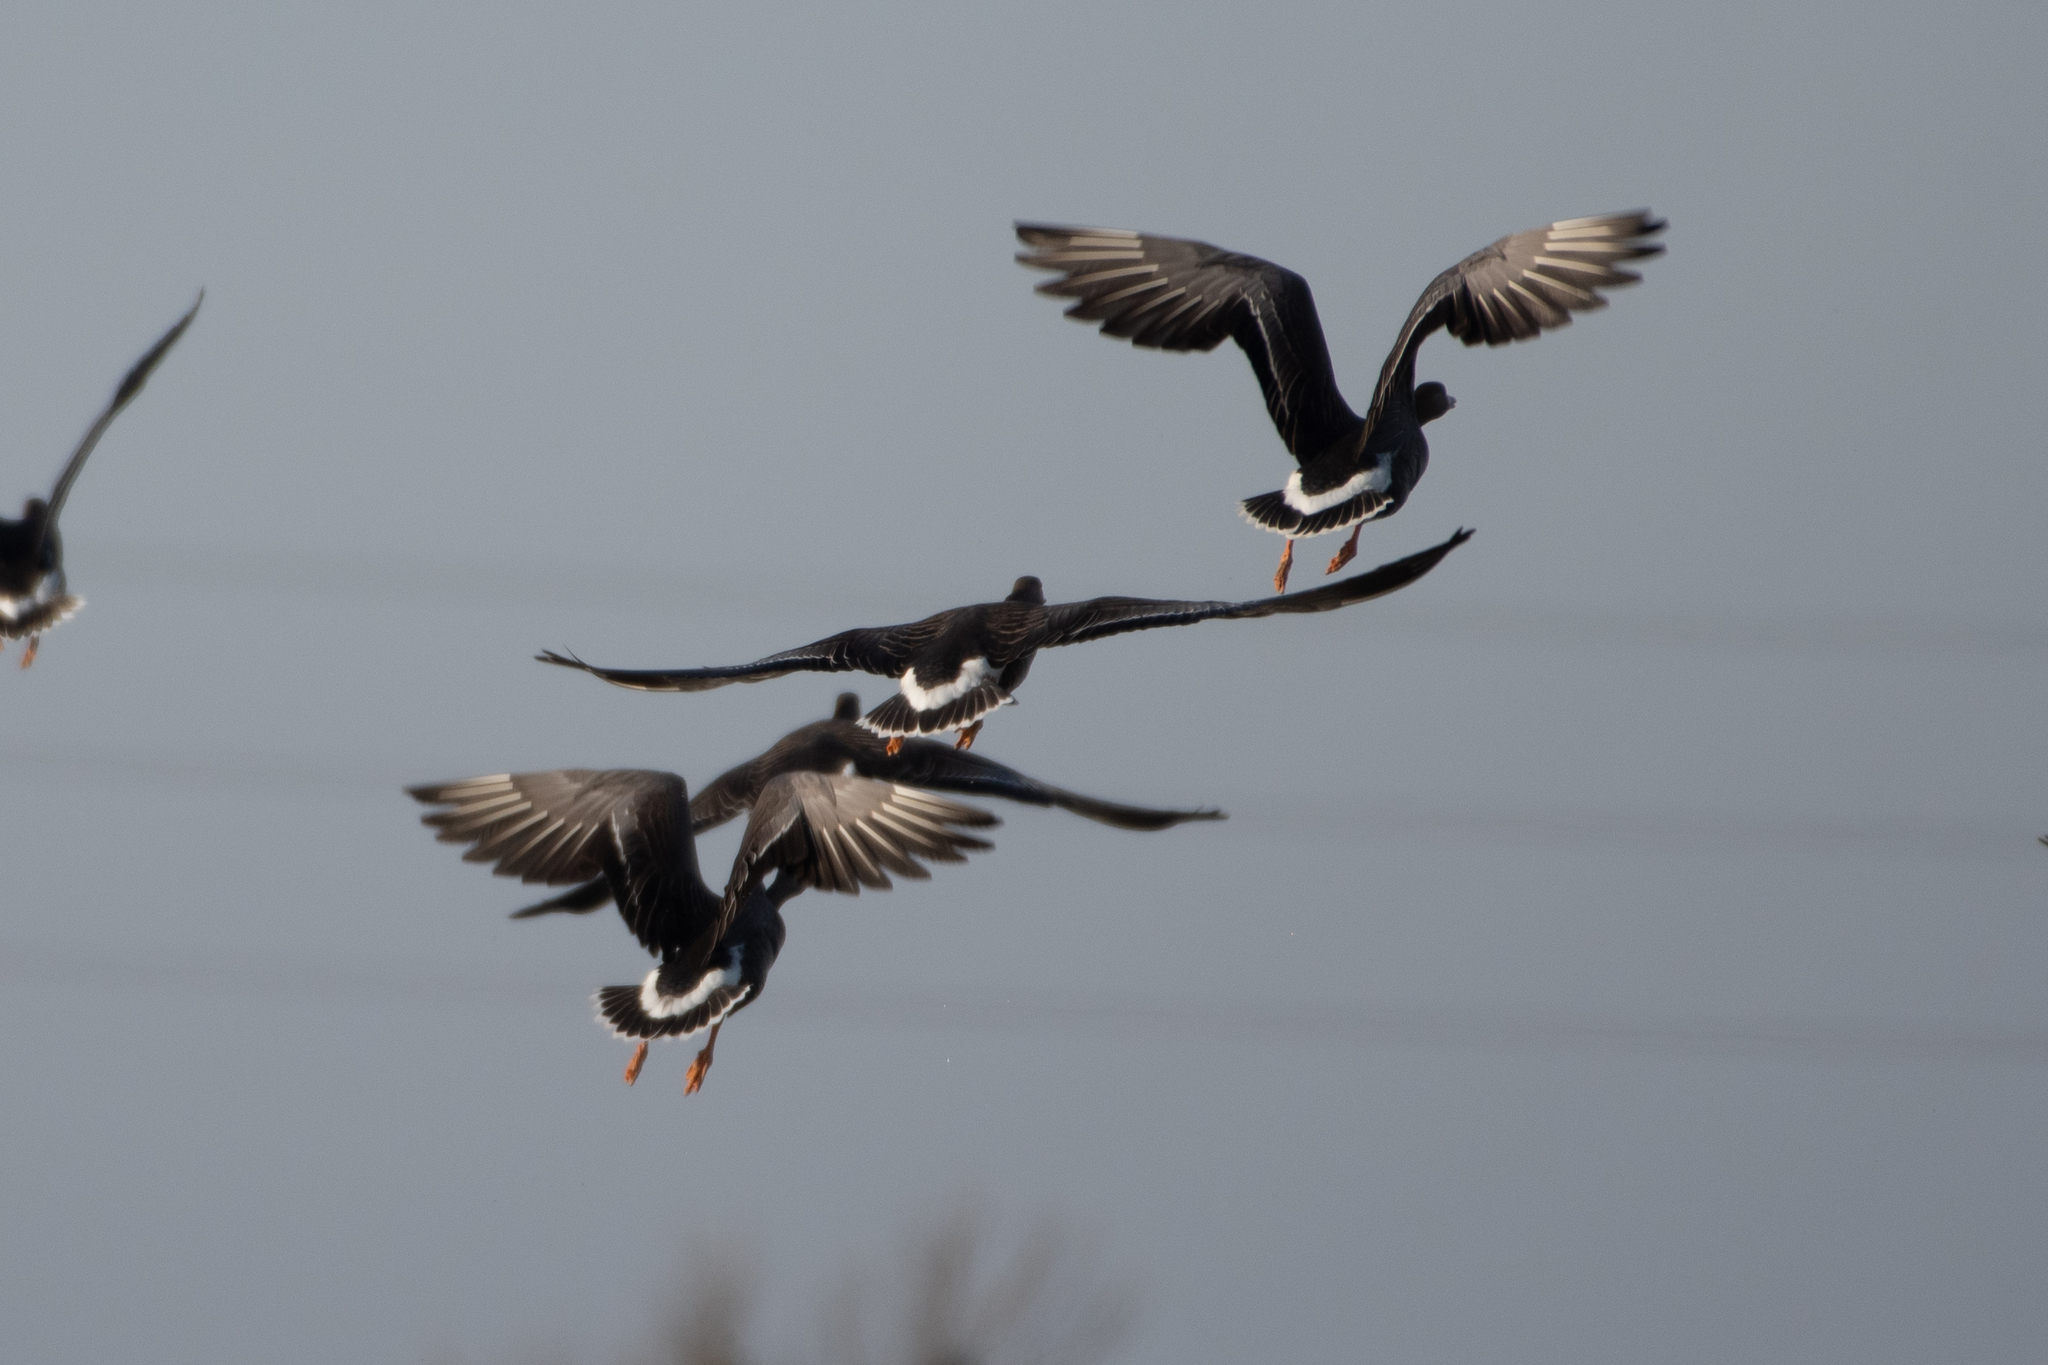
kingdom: Animalia
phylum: Chordata
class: Aves
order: Anseriformes
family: Anatidae
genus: Anser
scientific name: Anser albifrons
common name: Greater white-fronted goose
